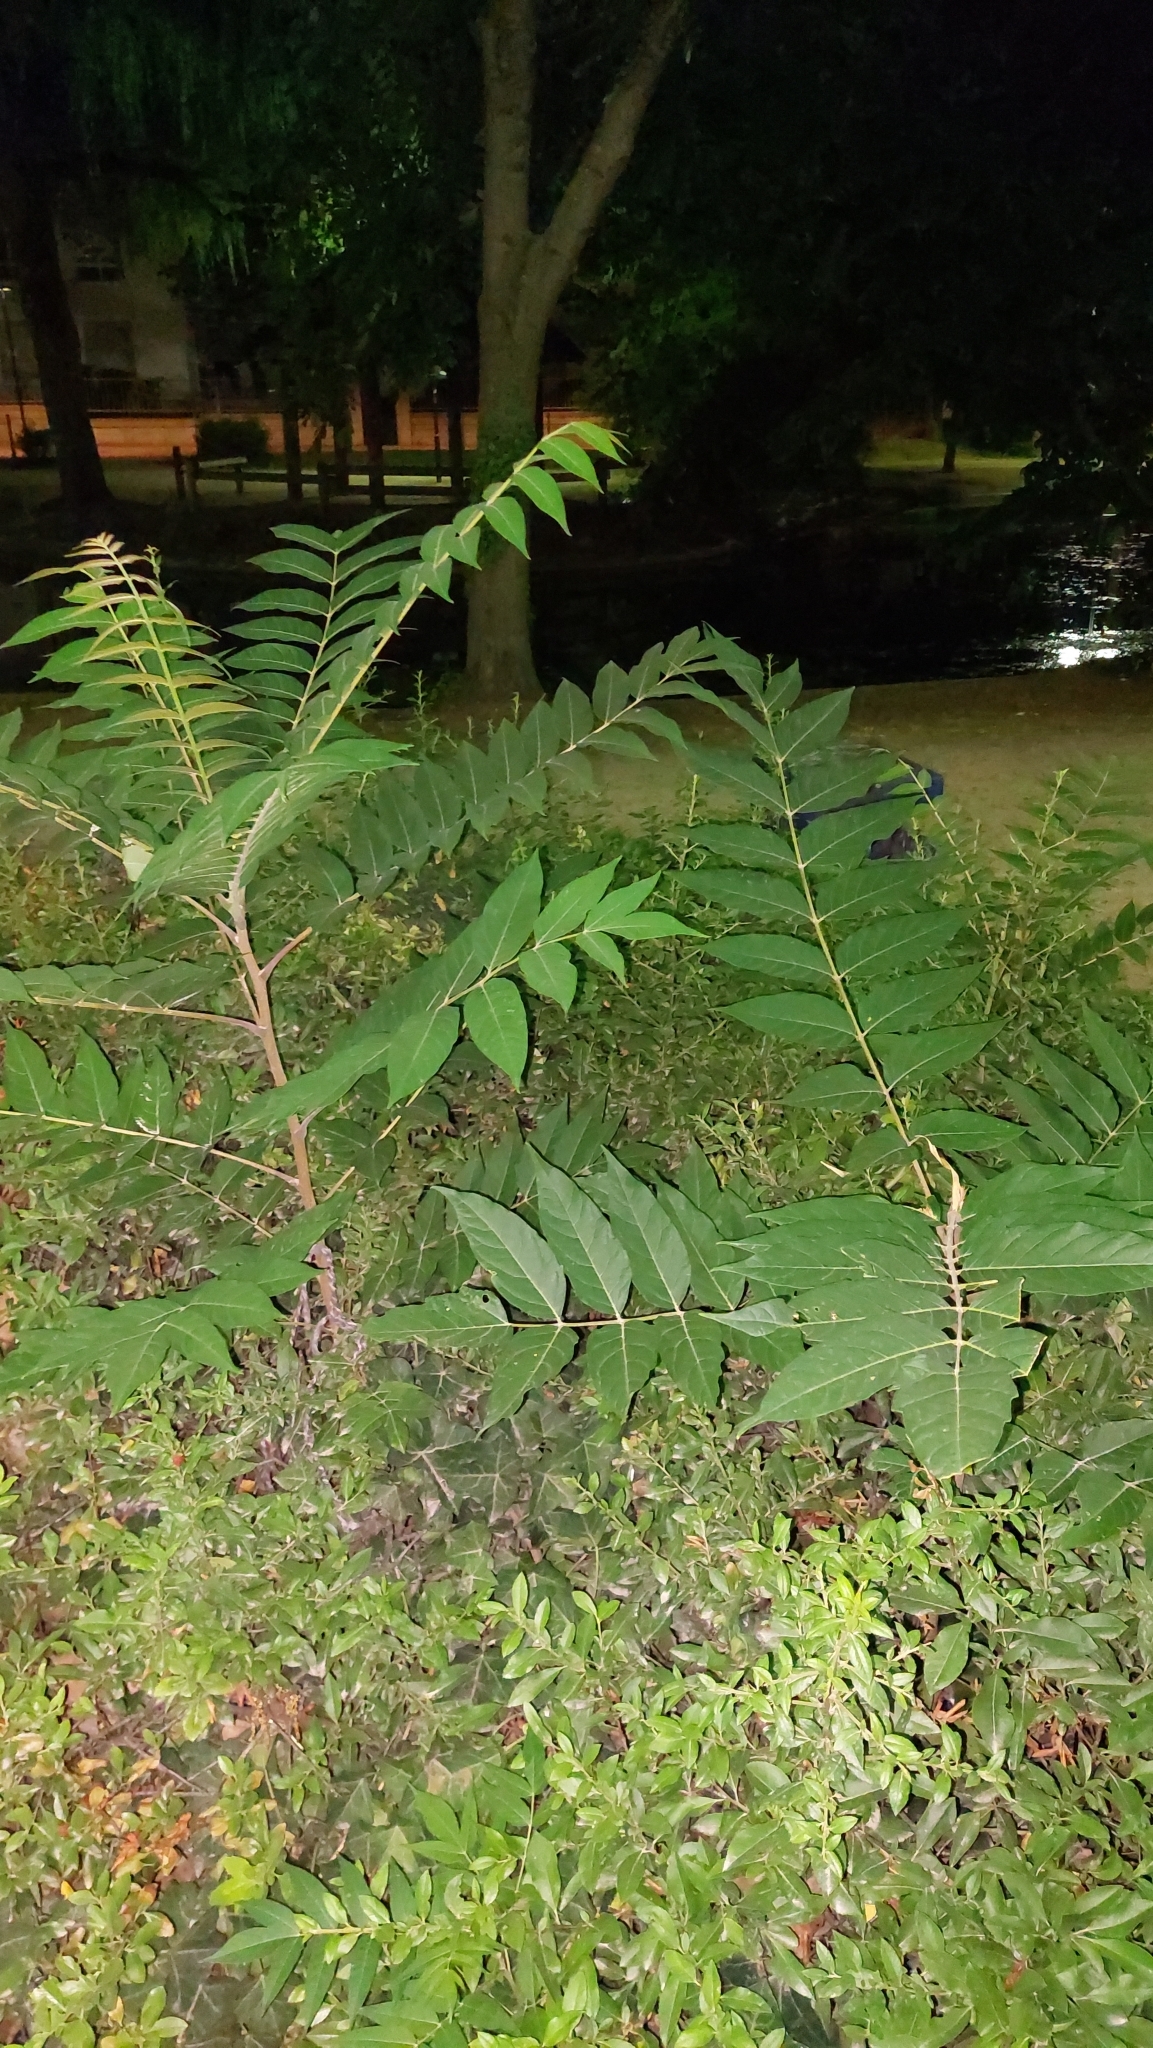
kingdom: Plantae
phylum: Tracheophyta
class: Magnoliopsida
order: Sapindales
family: Simaroubaceae
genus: Ailanthus
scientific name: Ailanthus altissima
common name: Tree-of-heaven
